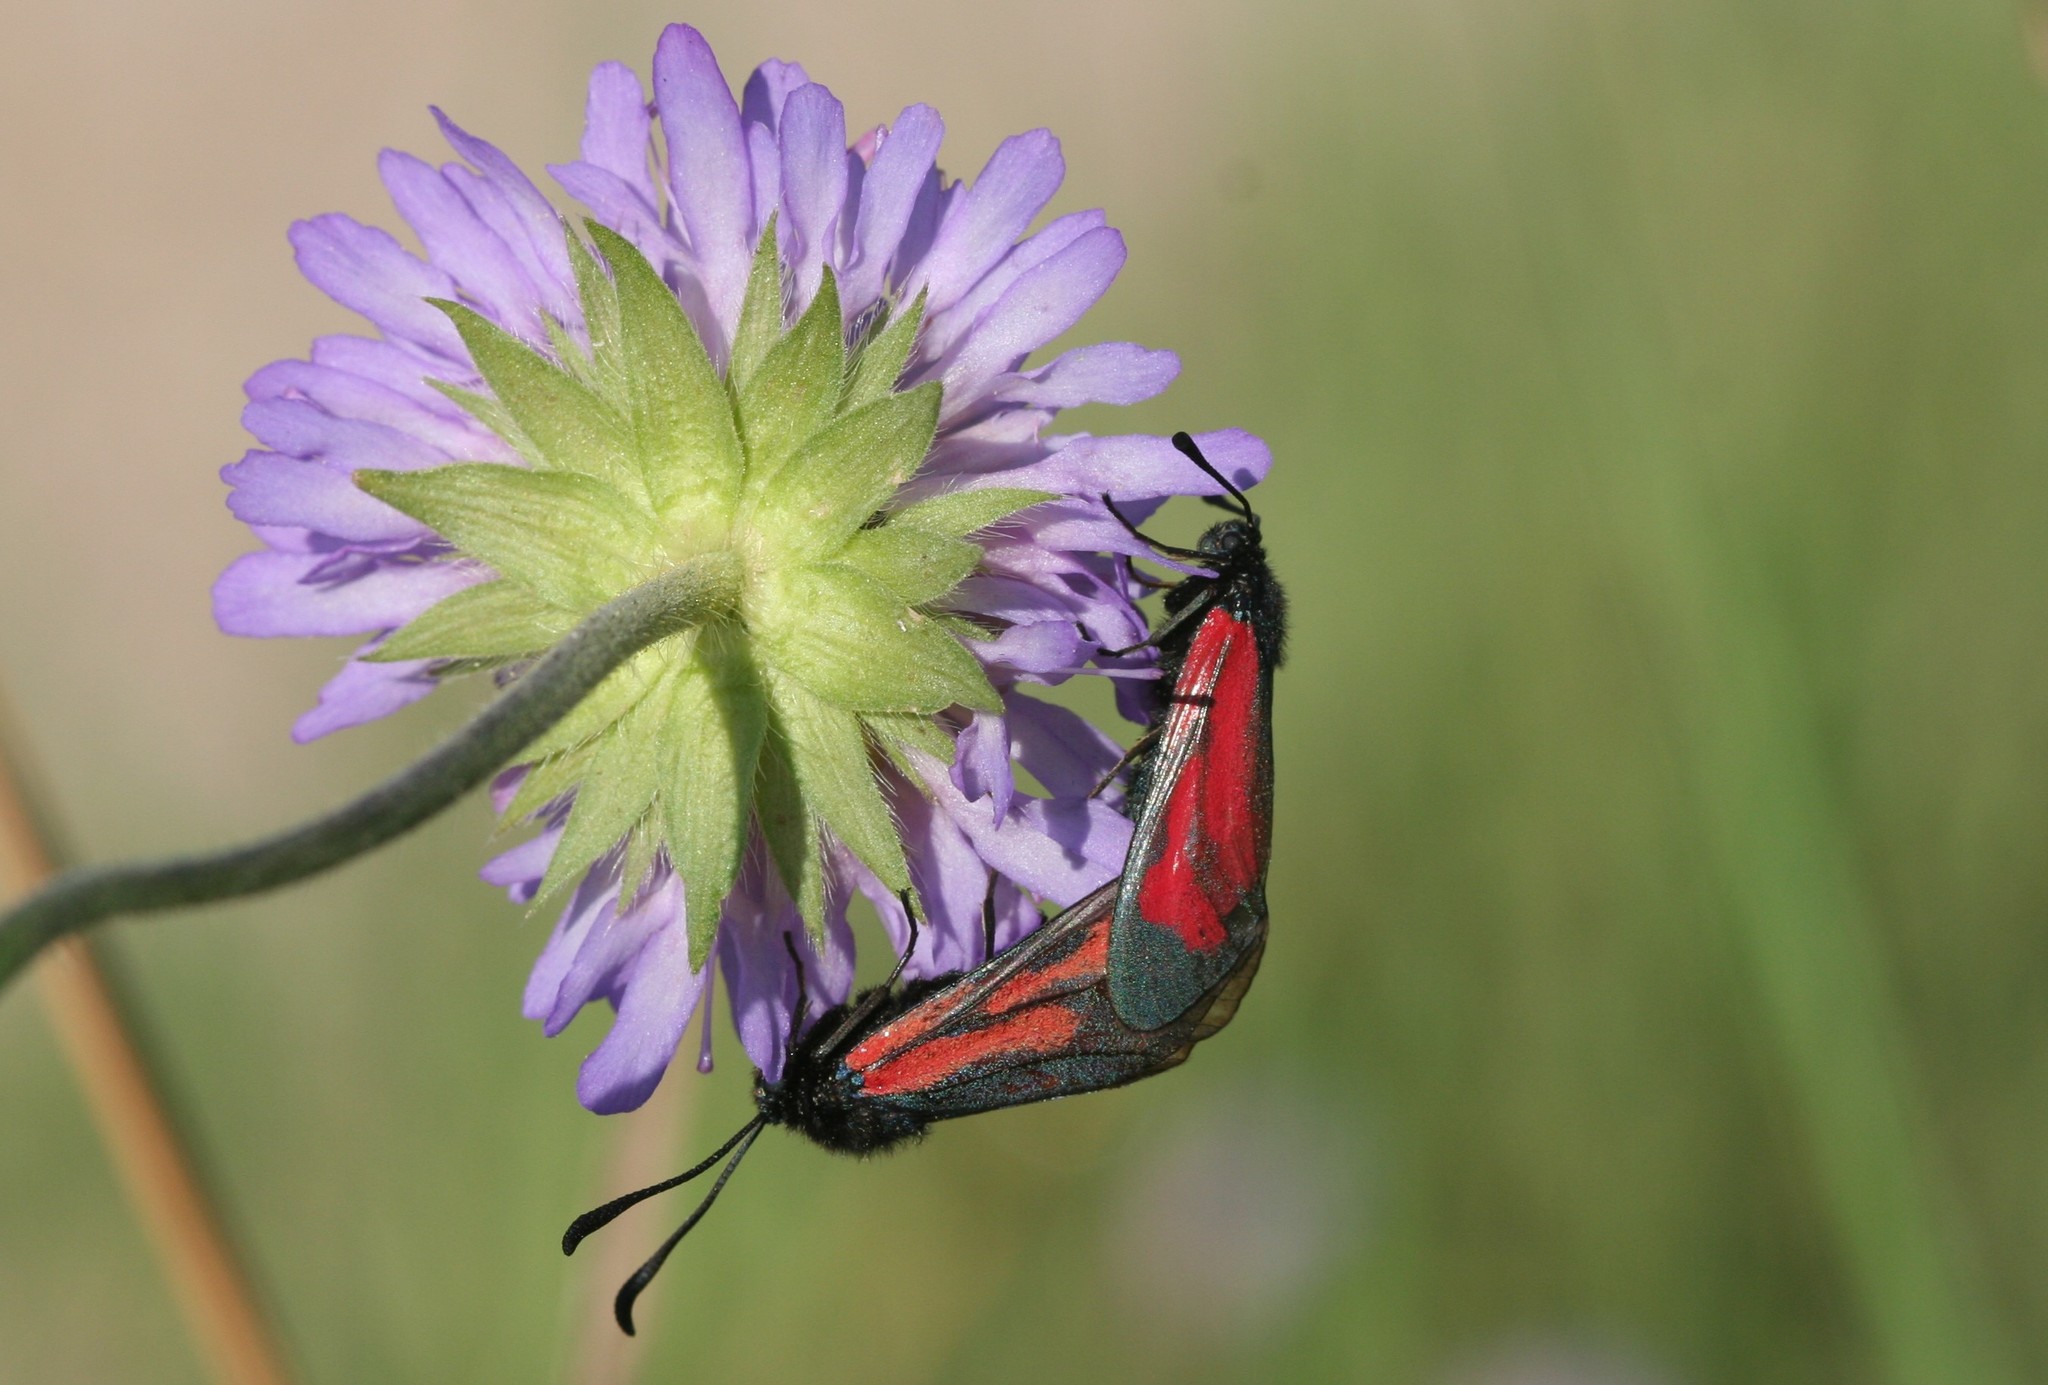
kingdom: Animalia
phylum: Arthropoda
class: Insecta
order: Lepidoptera
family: Zygaenidae
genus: Zygaena
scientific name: Zygaena minos
